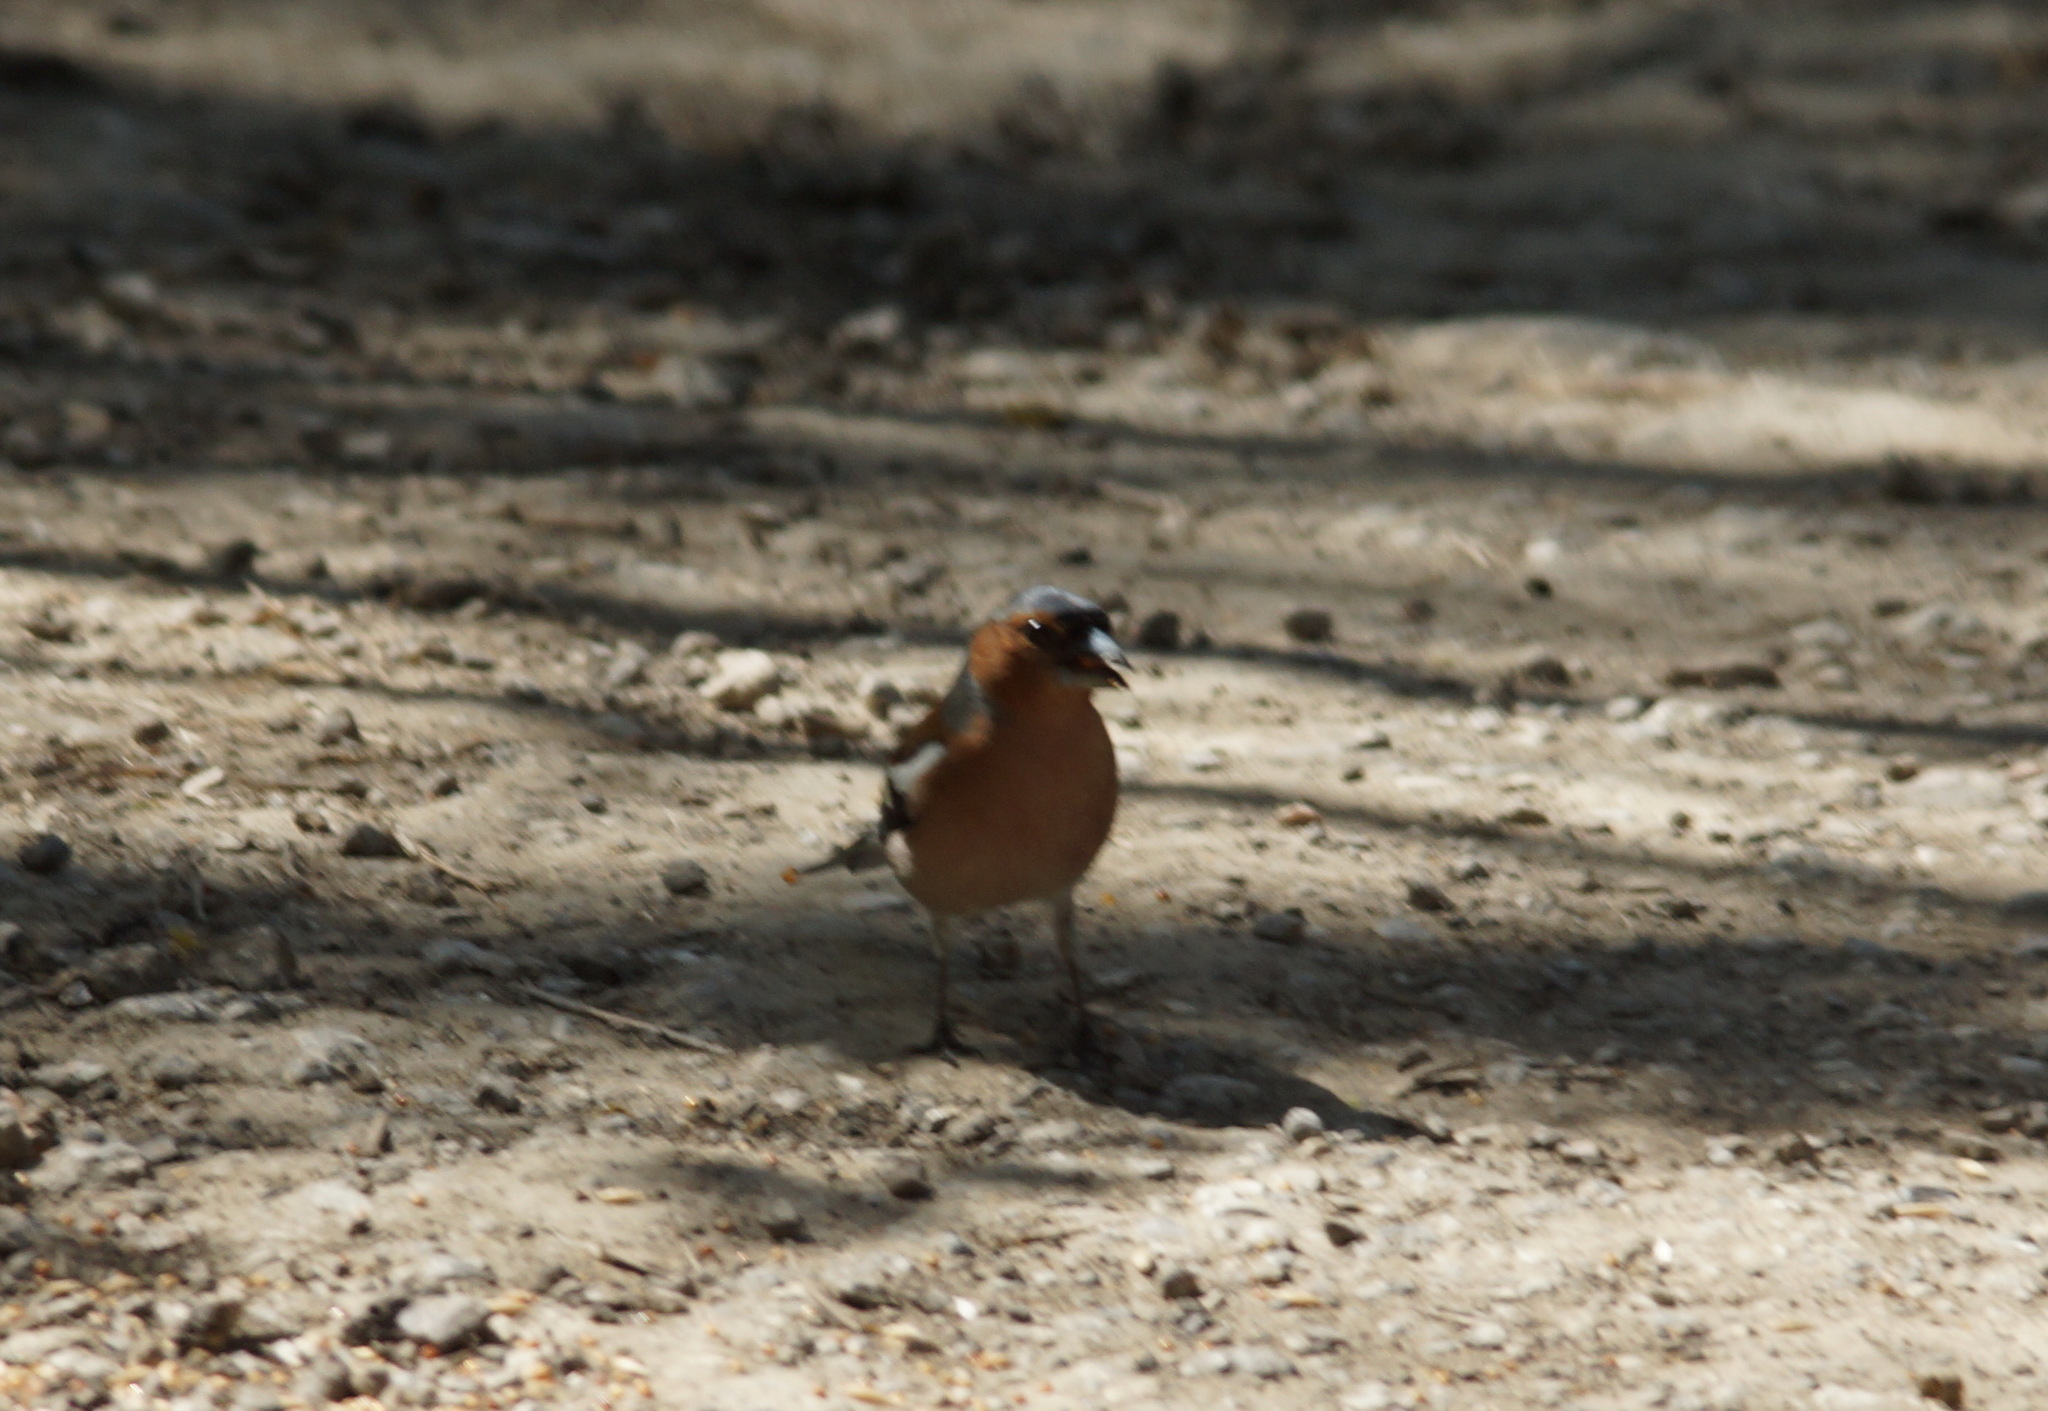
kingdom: Animalia
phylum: Chordata
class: Aves
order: Passeriformes
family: Fringillidae
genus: Fringilla
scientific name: Fringilla coelebs
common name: Common chaffinch
